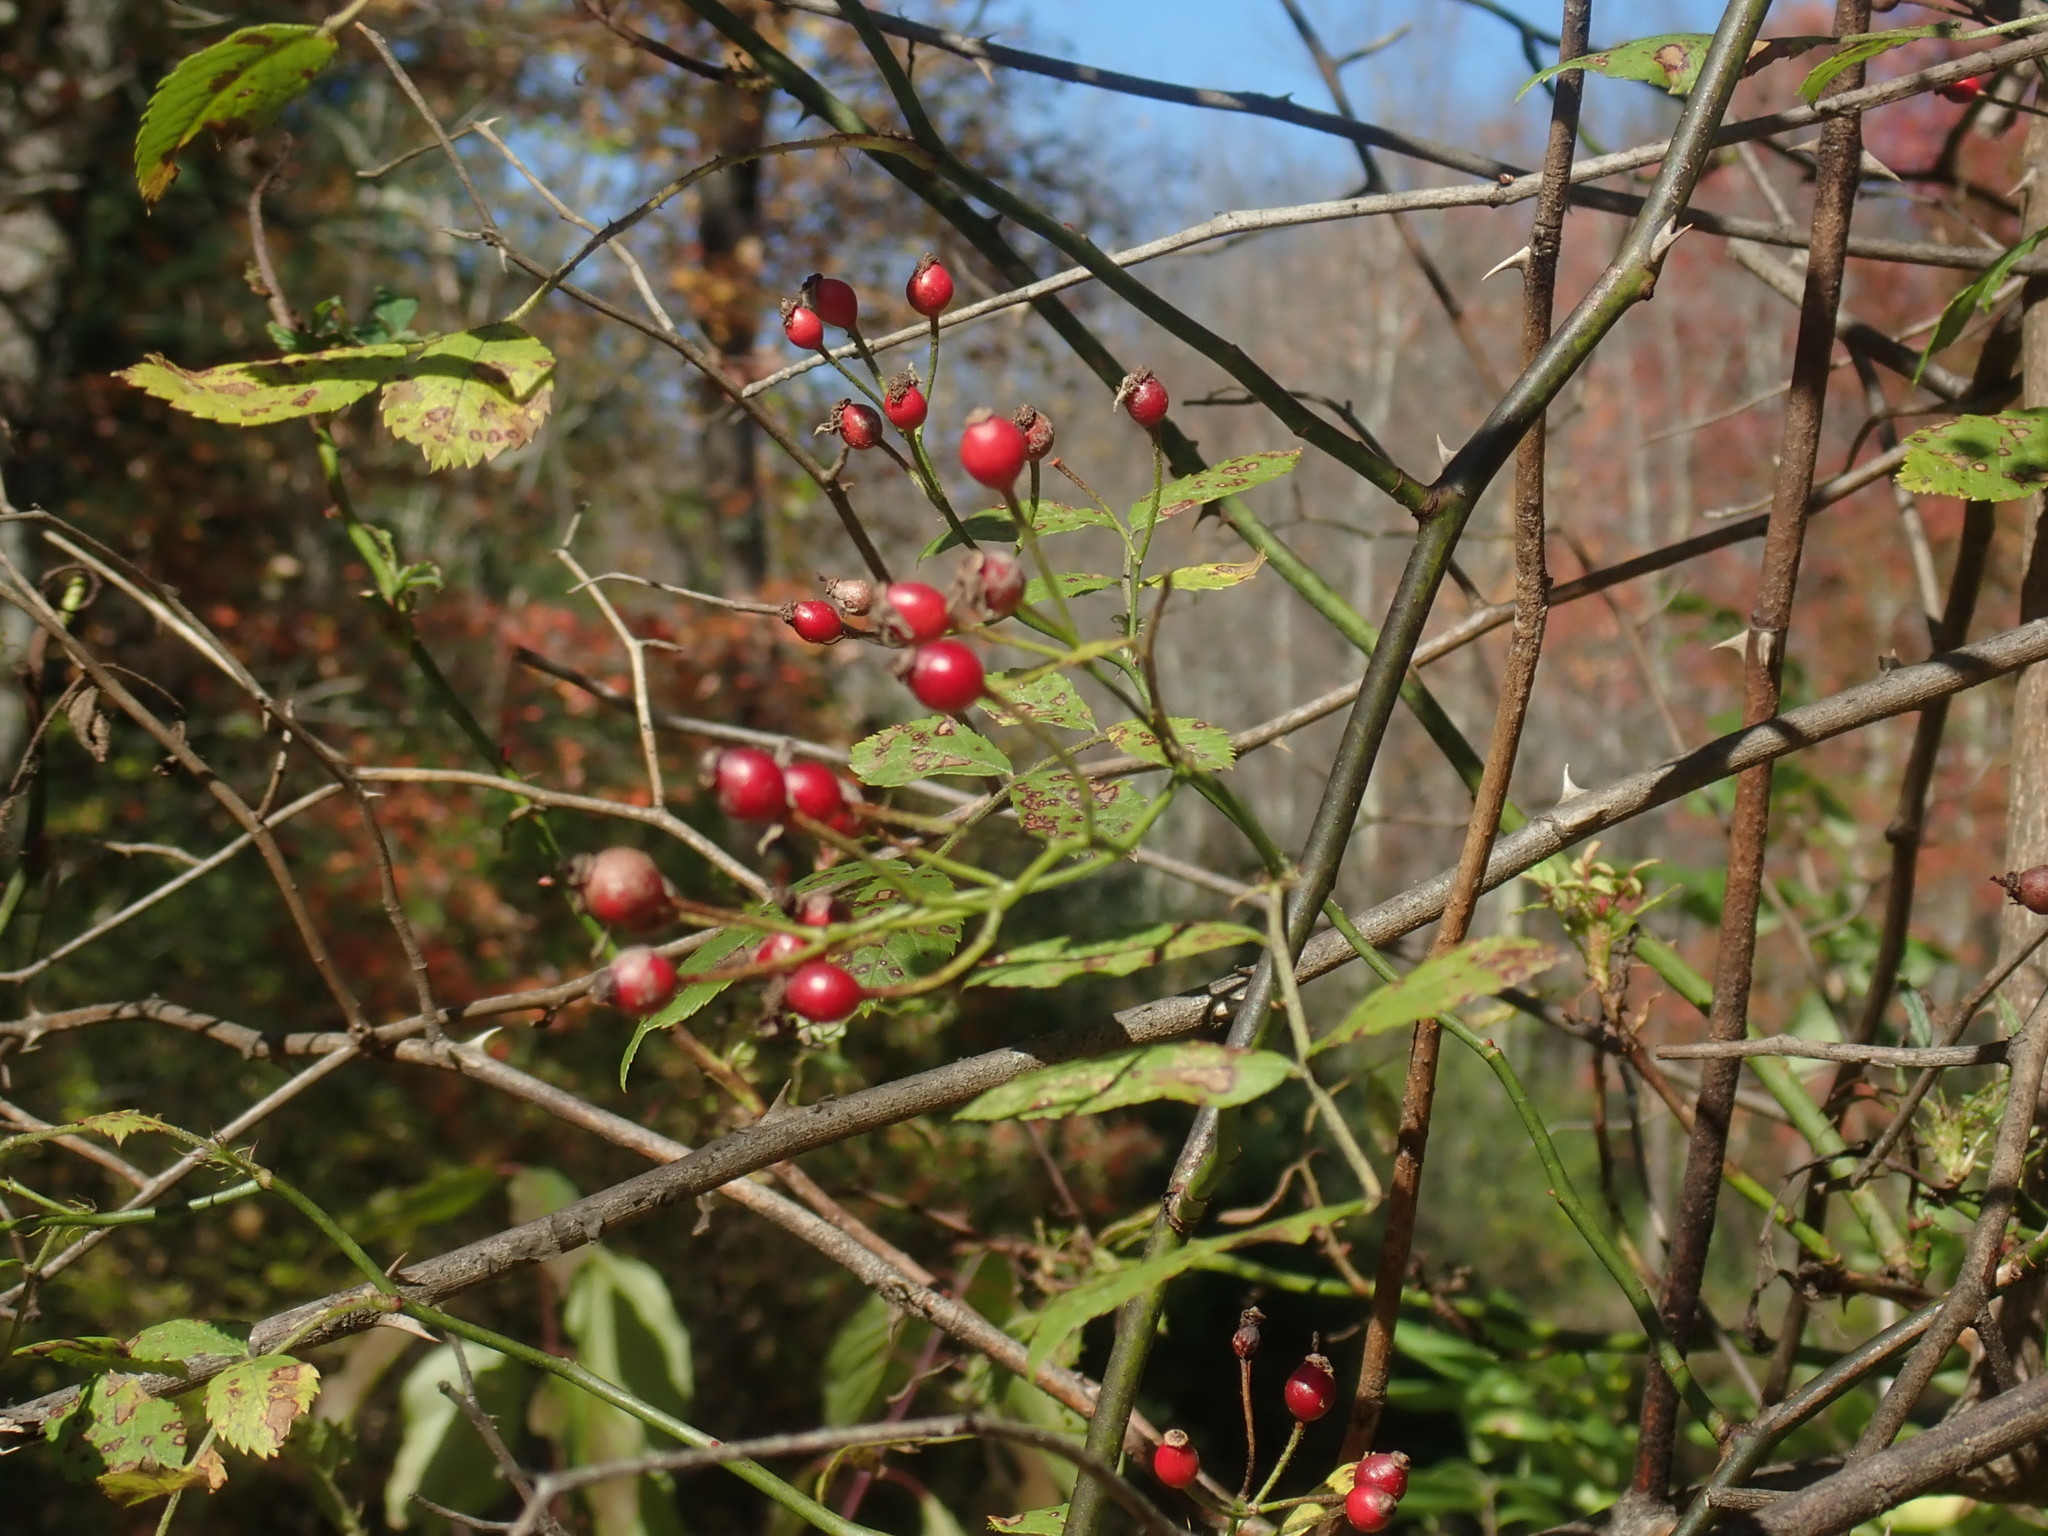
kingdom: Plantae
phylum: Tracheophyta
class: Magnoliopsida
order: Rosales
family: Rosaceae
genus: Rosa
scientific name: Rosa multiflora
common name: Multiflora rose
